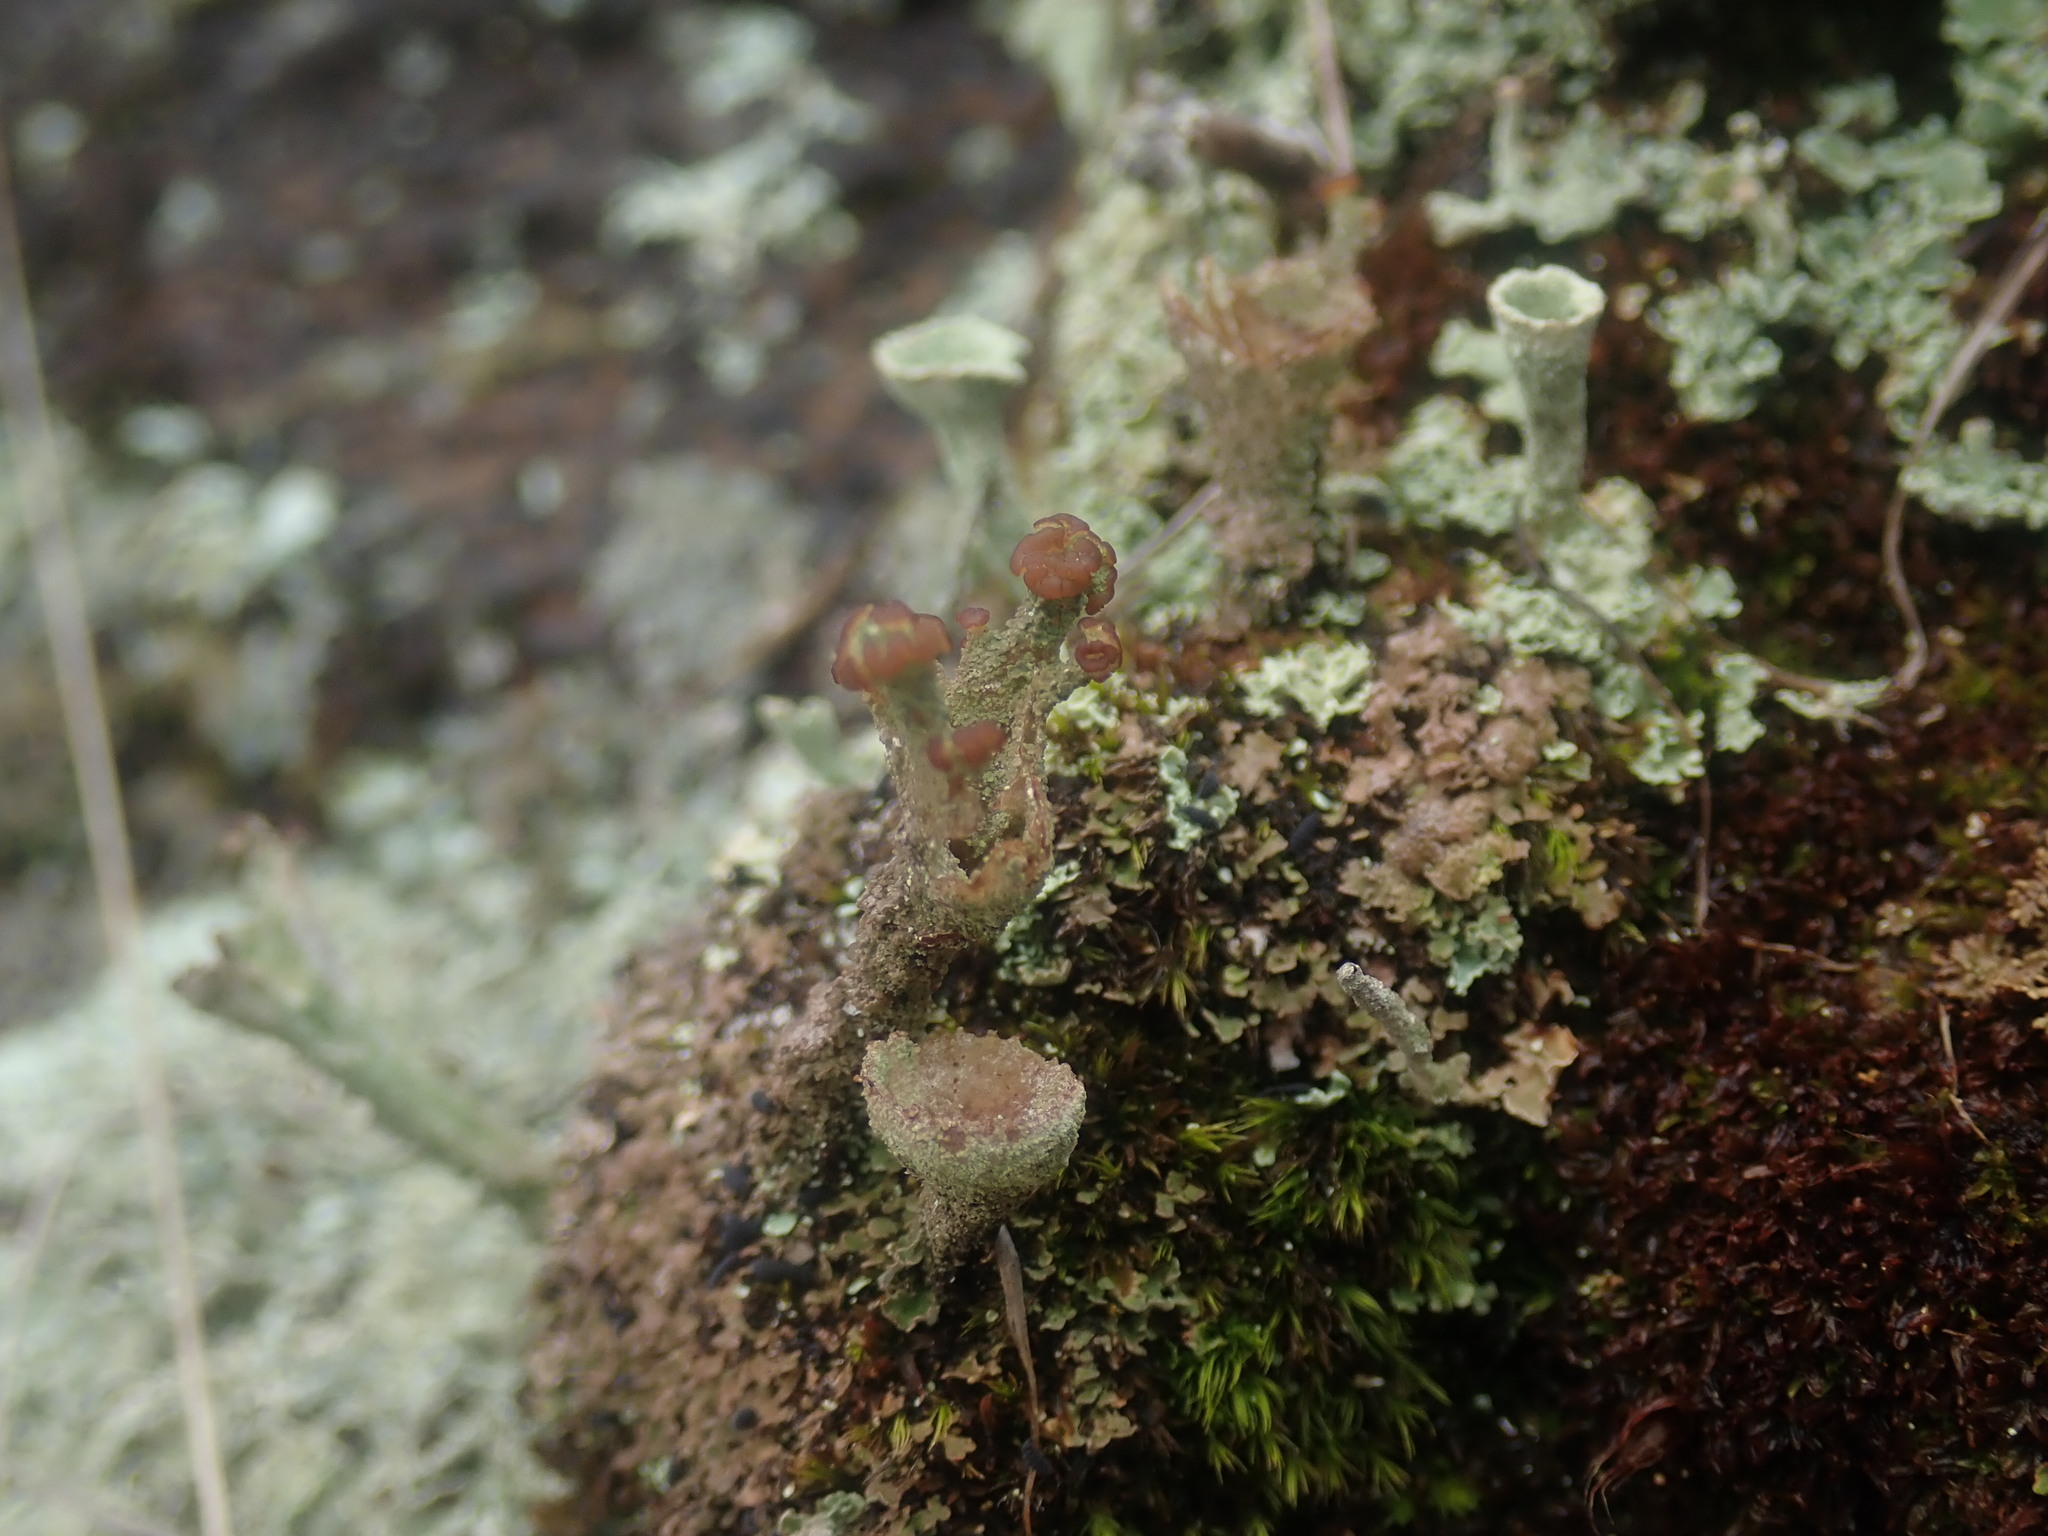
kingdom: Fungi
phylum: Ascomycota
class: Lecanoromycetes
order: Lecanorales
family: Cladoniaceae
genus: Cladonia
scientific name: Cladonia
